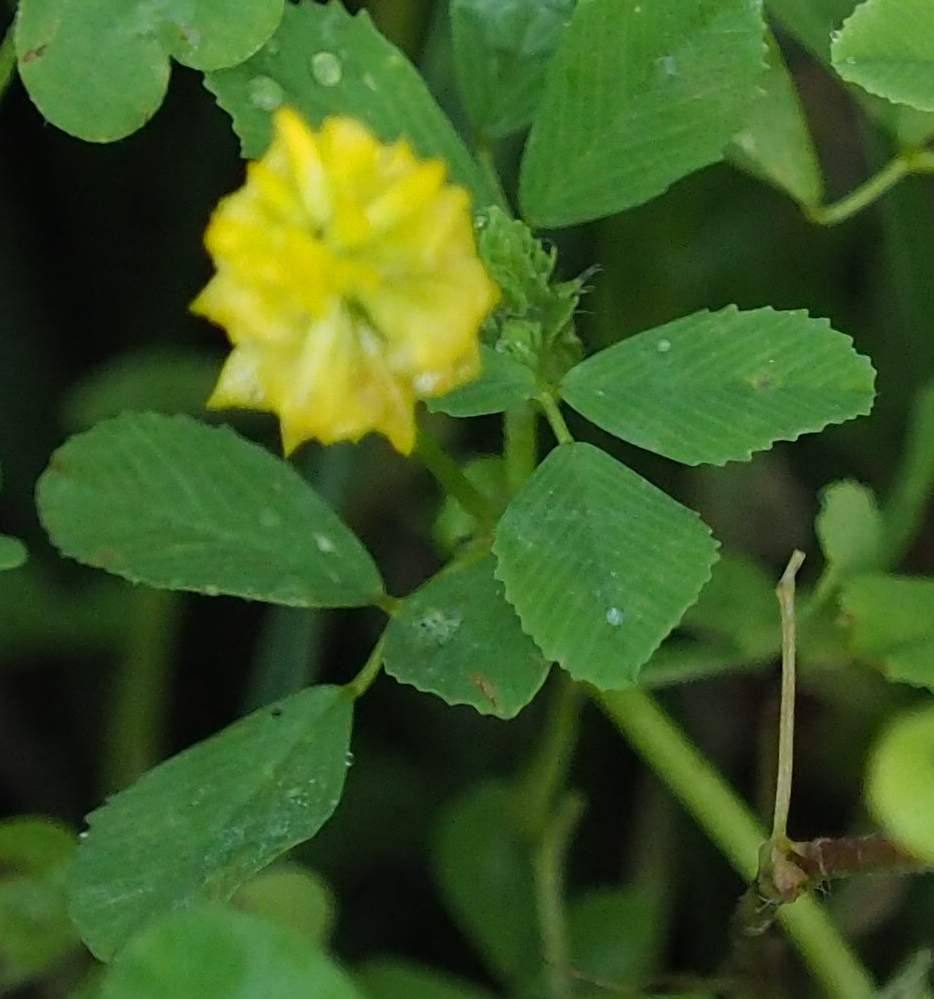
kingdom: Plantae
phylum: Tracheophyta
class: Magnoliopsida
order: Fabales
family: Fabaceae
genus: Trifolium
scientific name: Trifolium campestre
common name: Field clover
